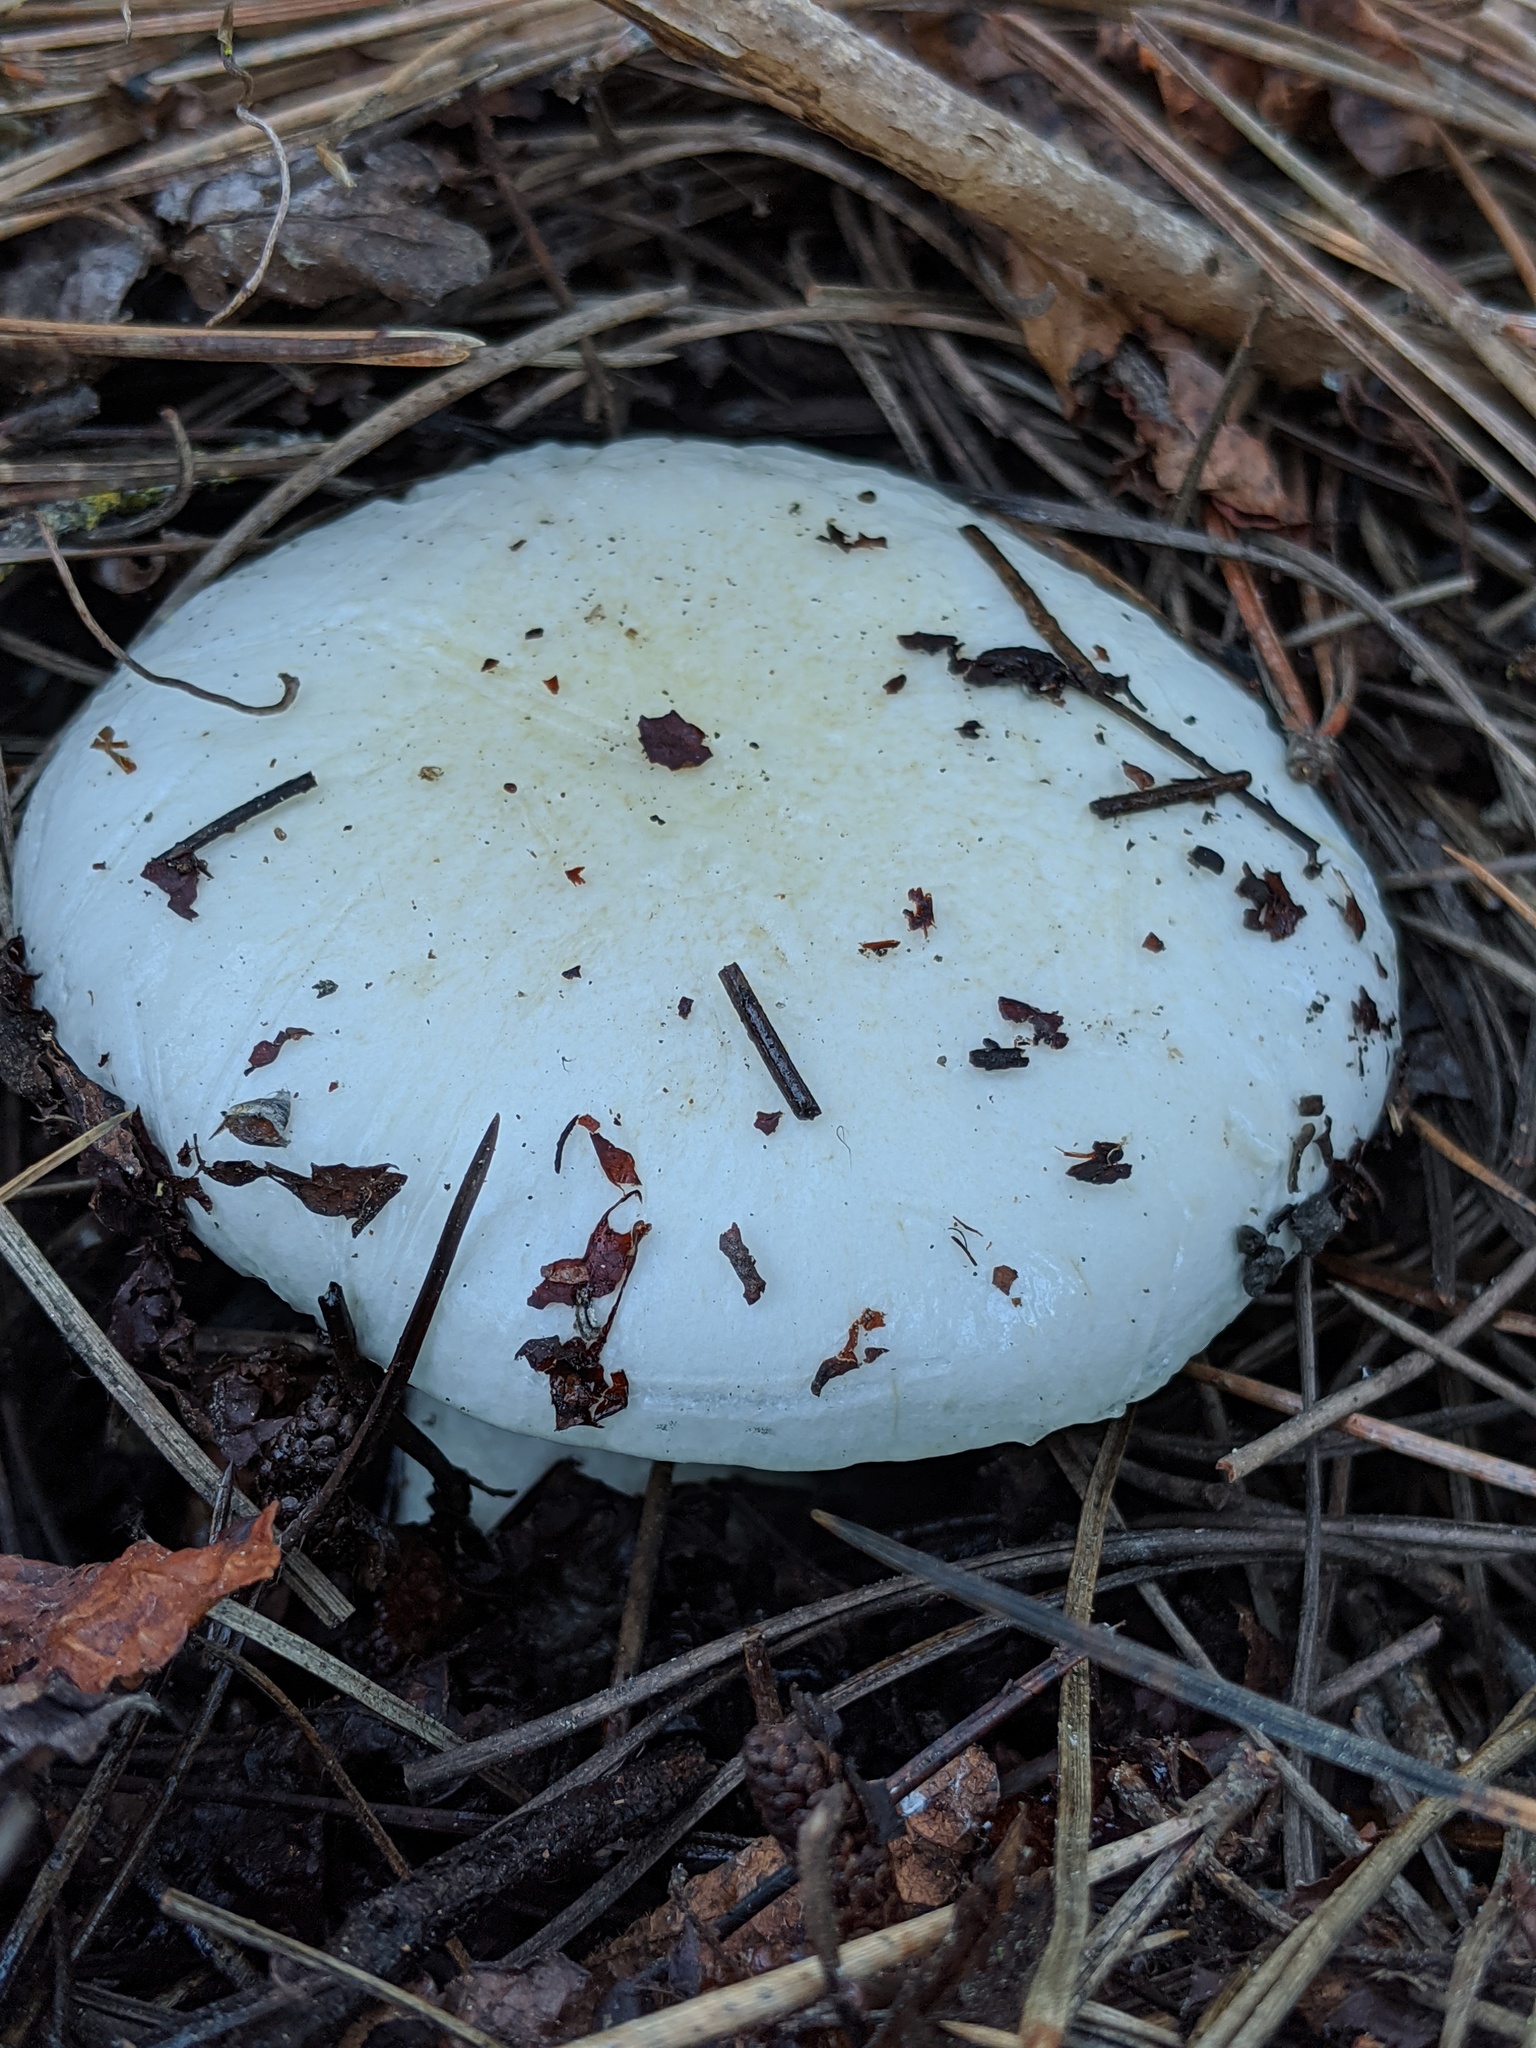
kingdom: Fungi
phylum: Basidiomycota
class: Agaricomycetes
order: Agaricales
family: Hygrophoraceae
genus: Hygrophorus
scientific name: Hygrophorus ligatus
